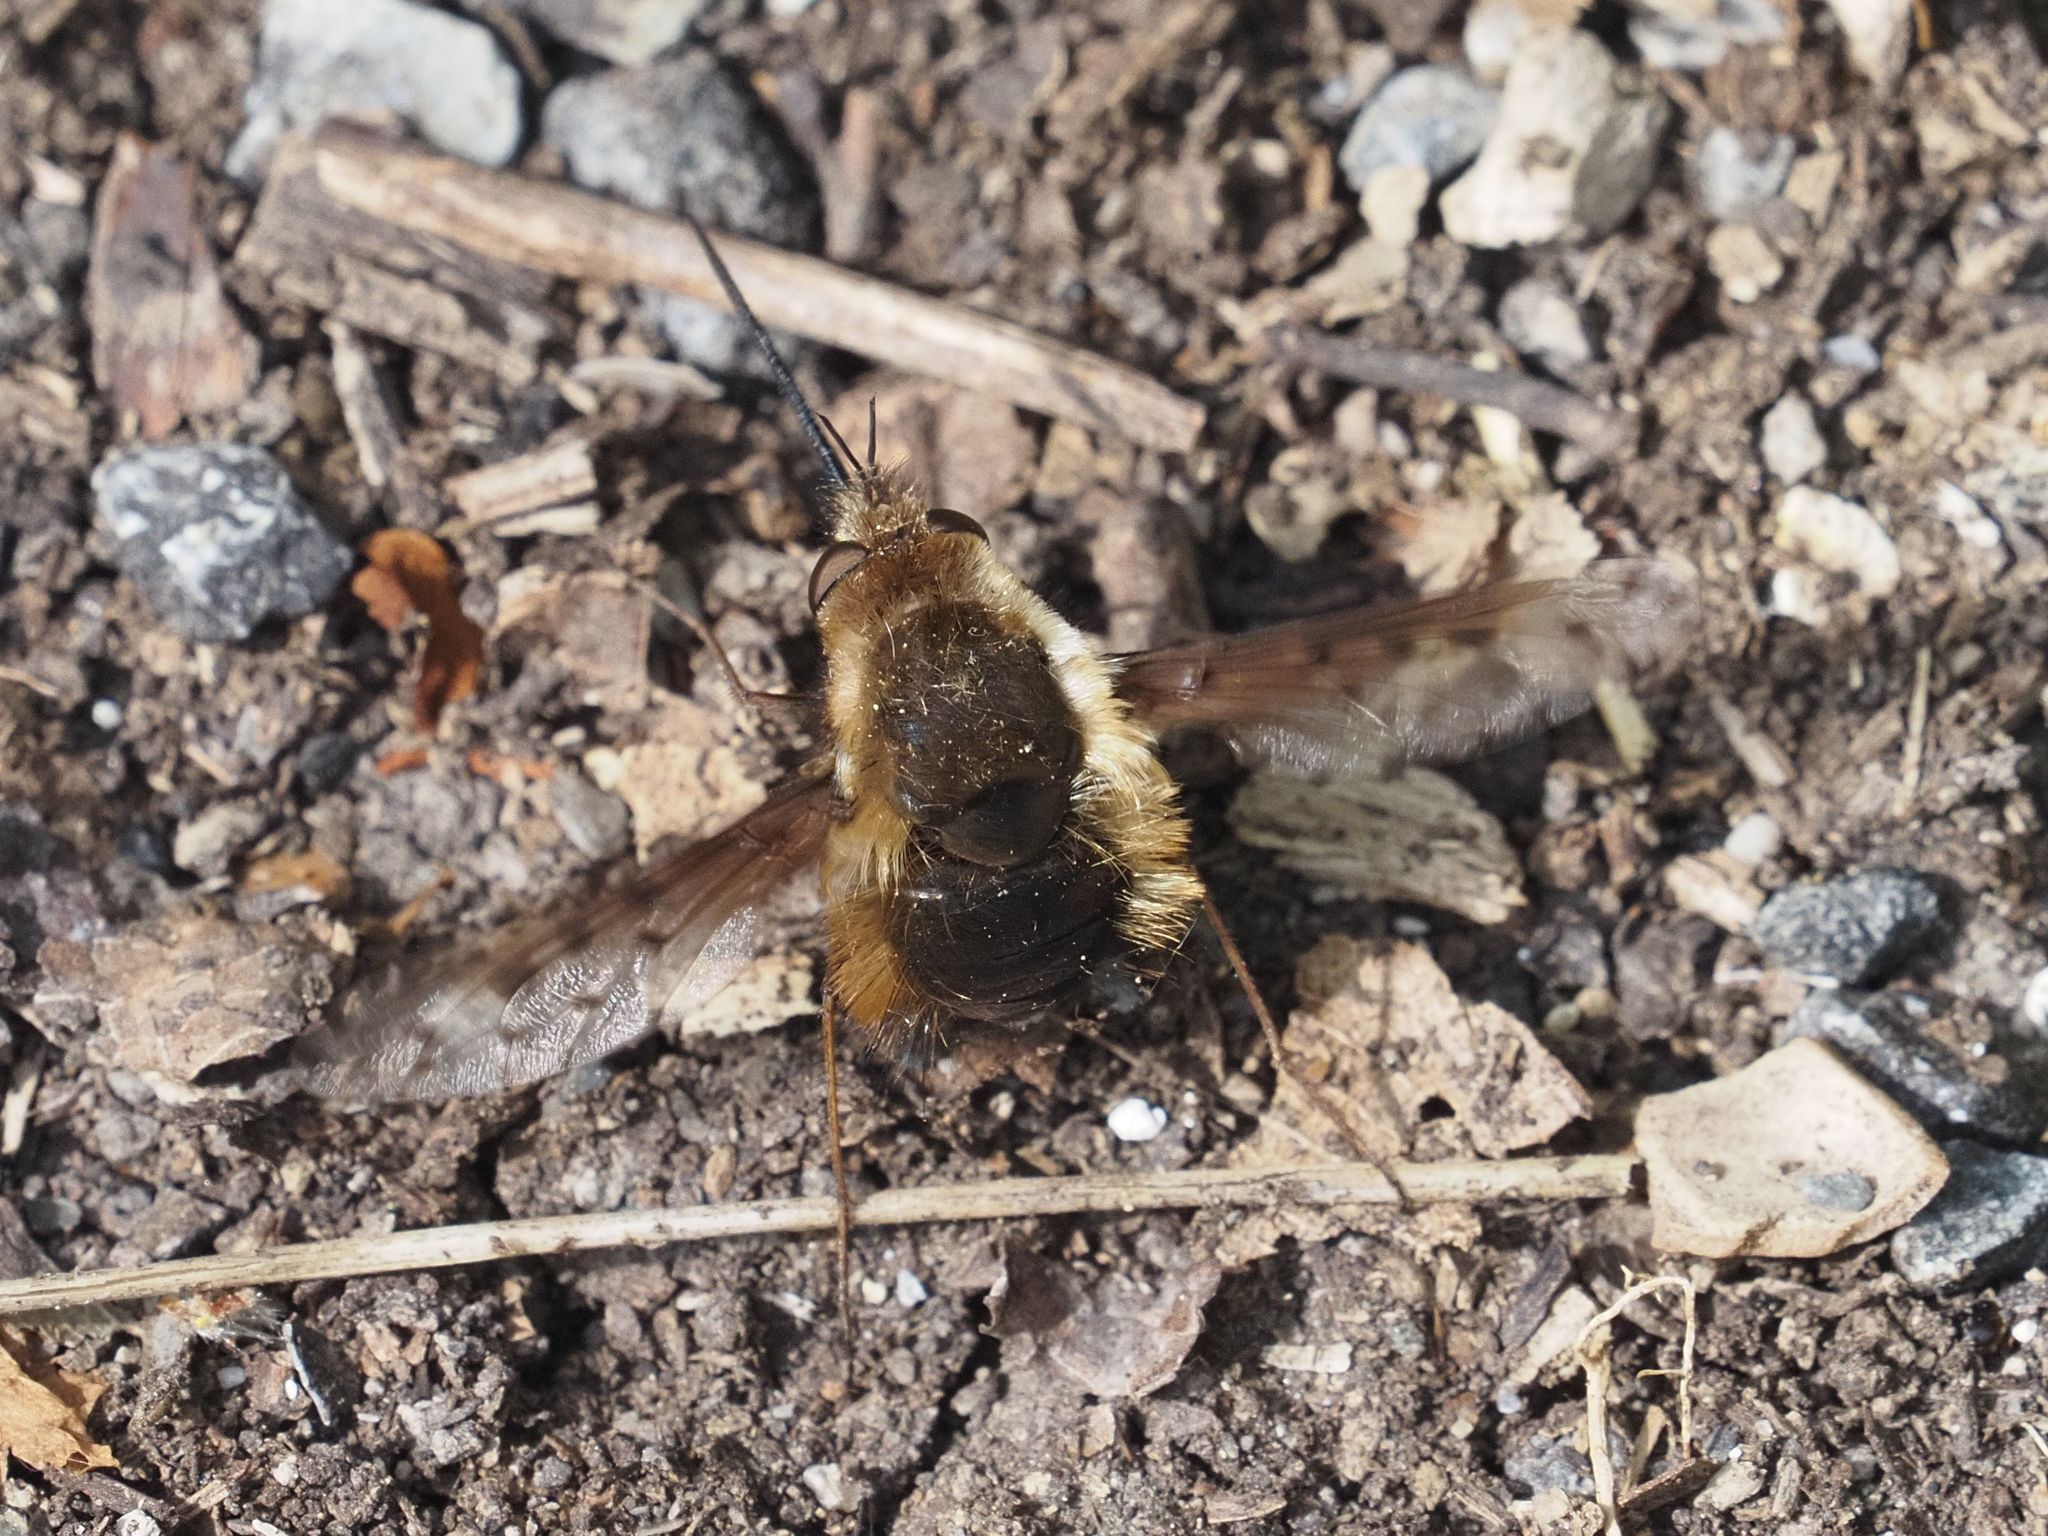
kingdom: Animalia
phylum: Arthropoda
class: Insecta
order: Diptera
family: Bombyliidae
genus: Bombylius
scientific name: Bombylius discolor
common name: Dotted bee-fly
